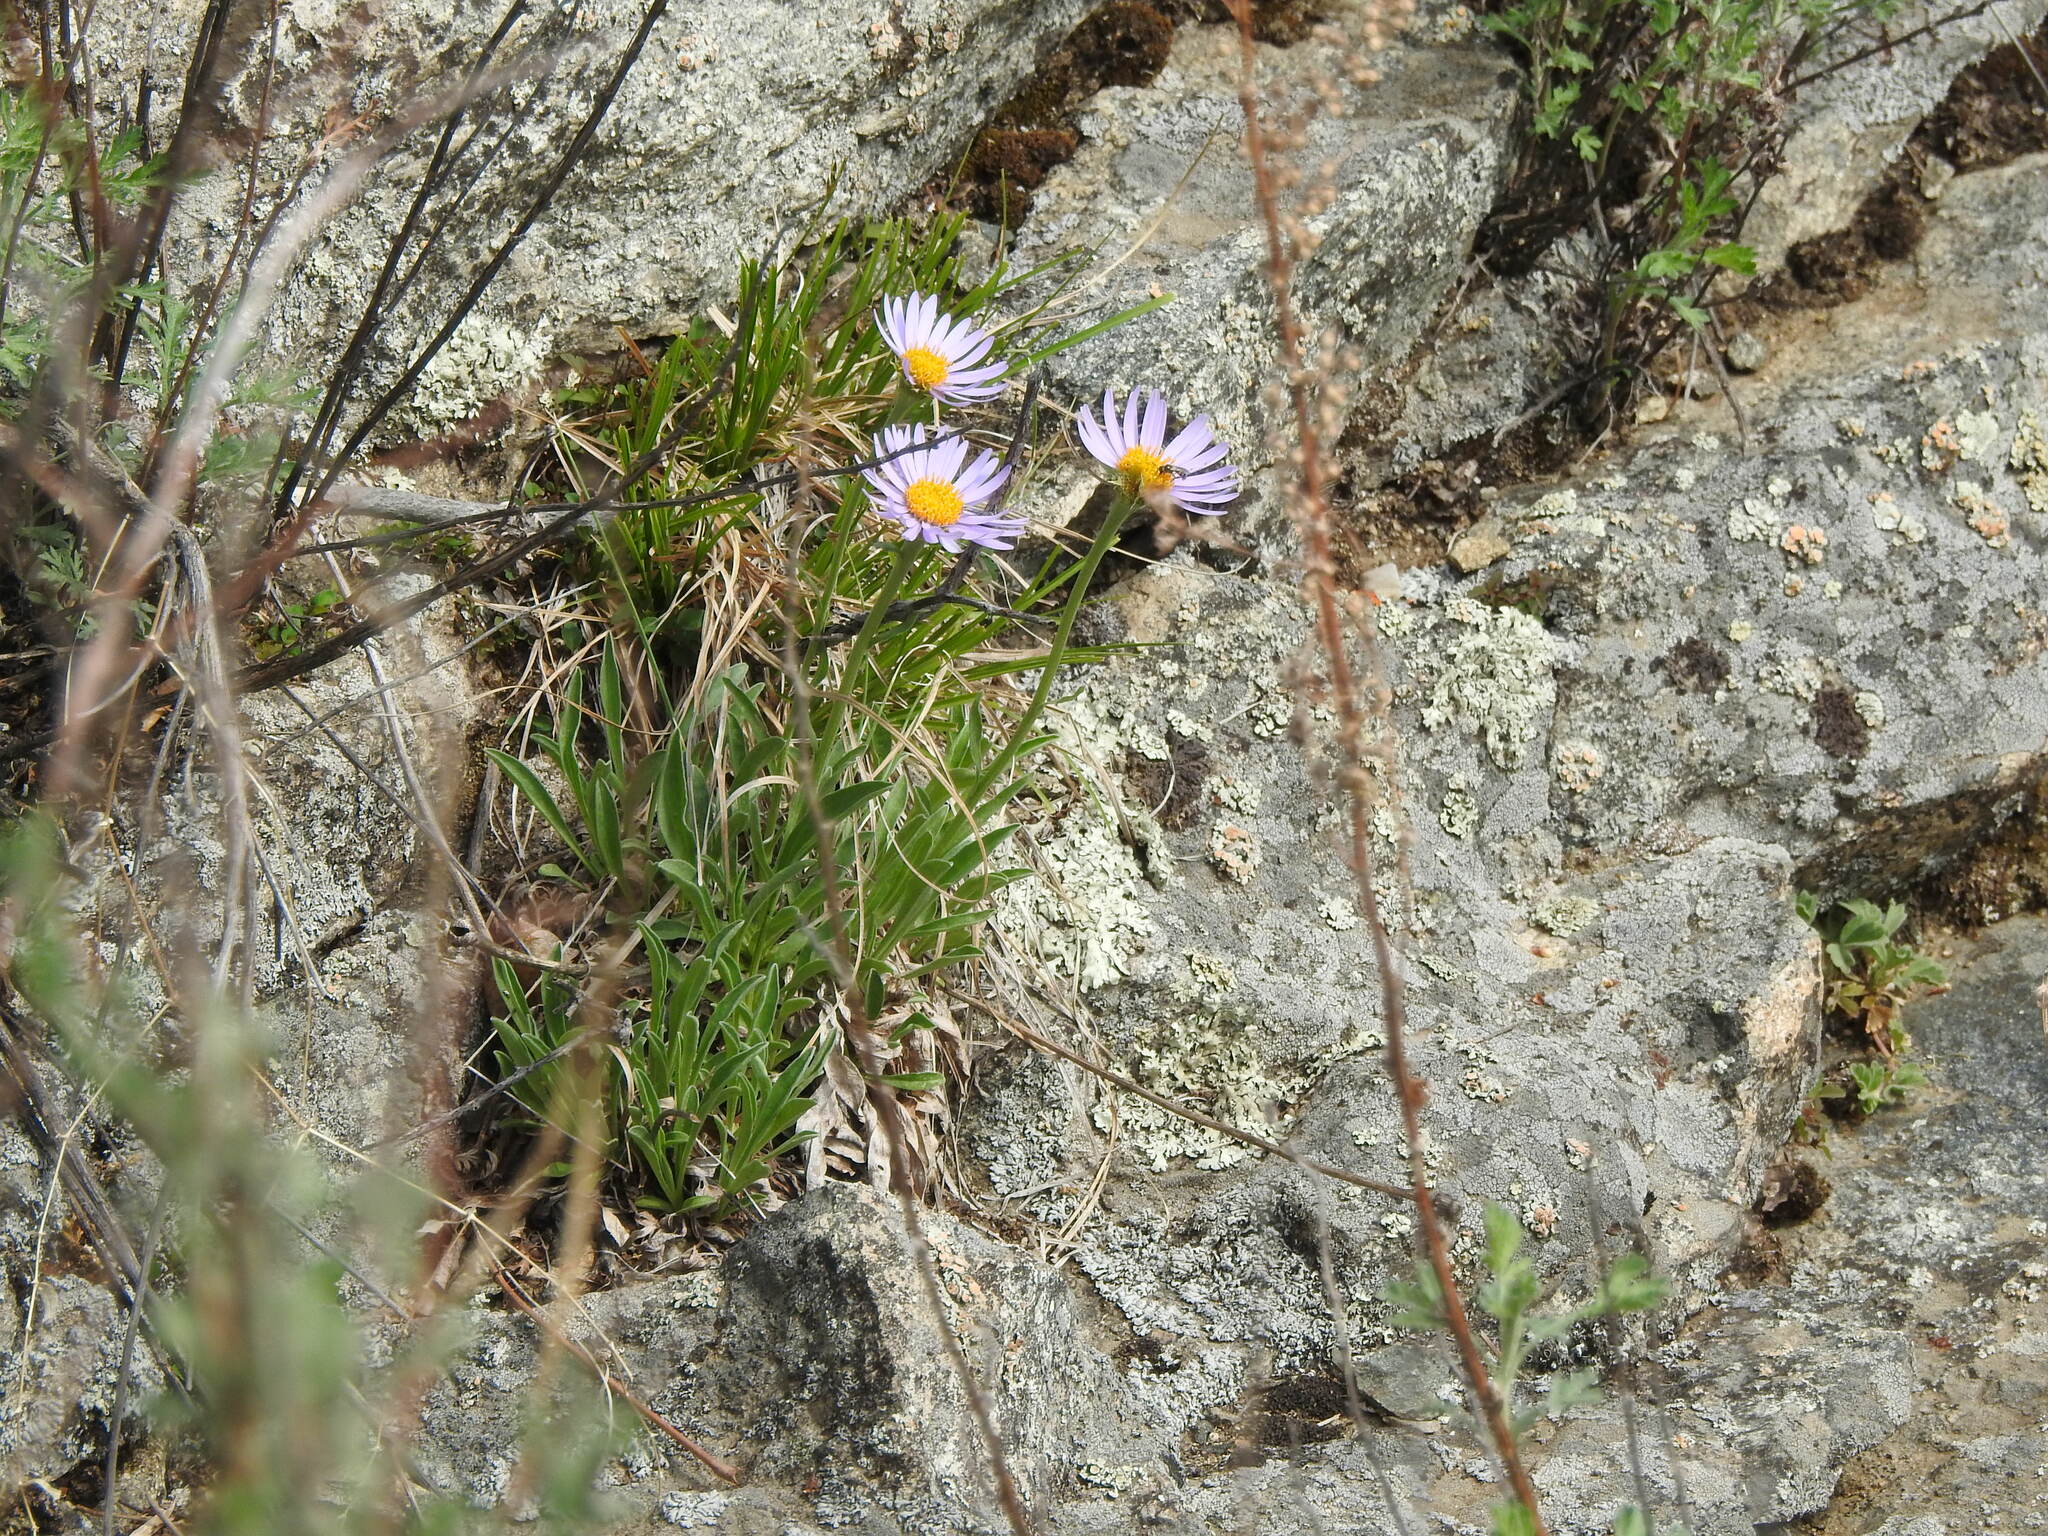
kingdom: Plantae
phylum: Tracheophyta
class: Magnoliopsida
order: Asterales
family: Asteraceae
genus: Aster
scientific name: Aster alpinus
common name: Alpine aster
